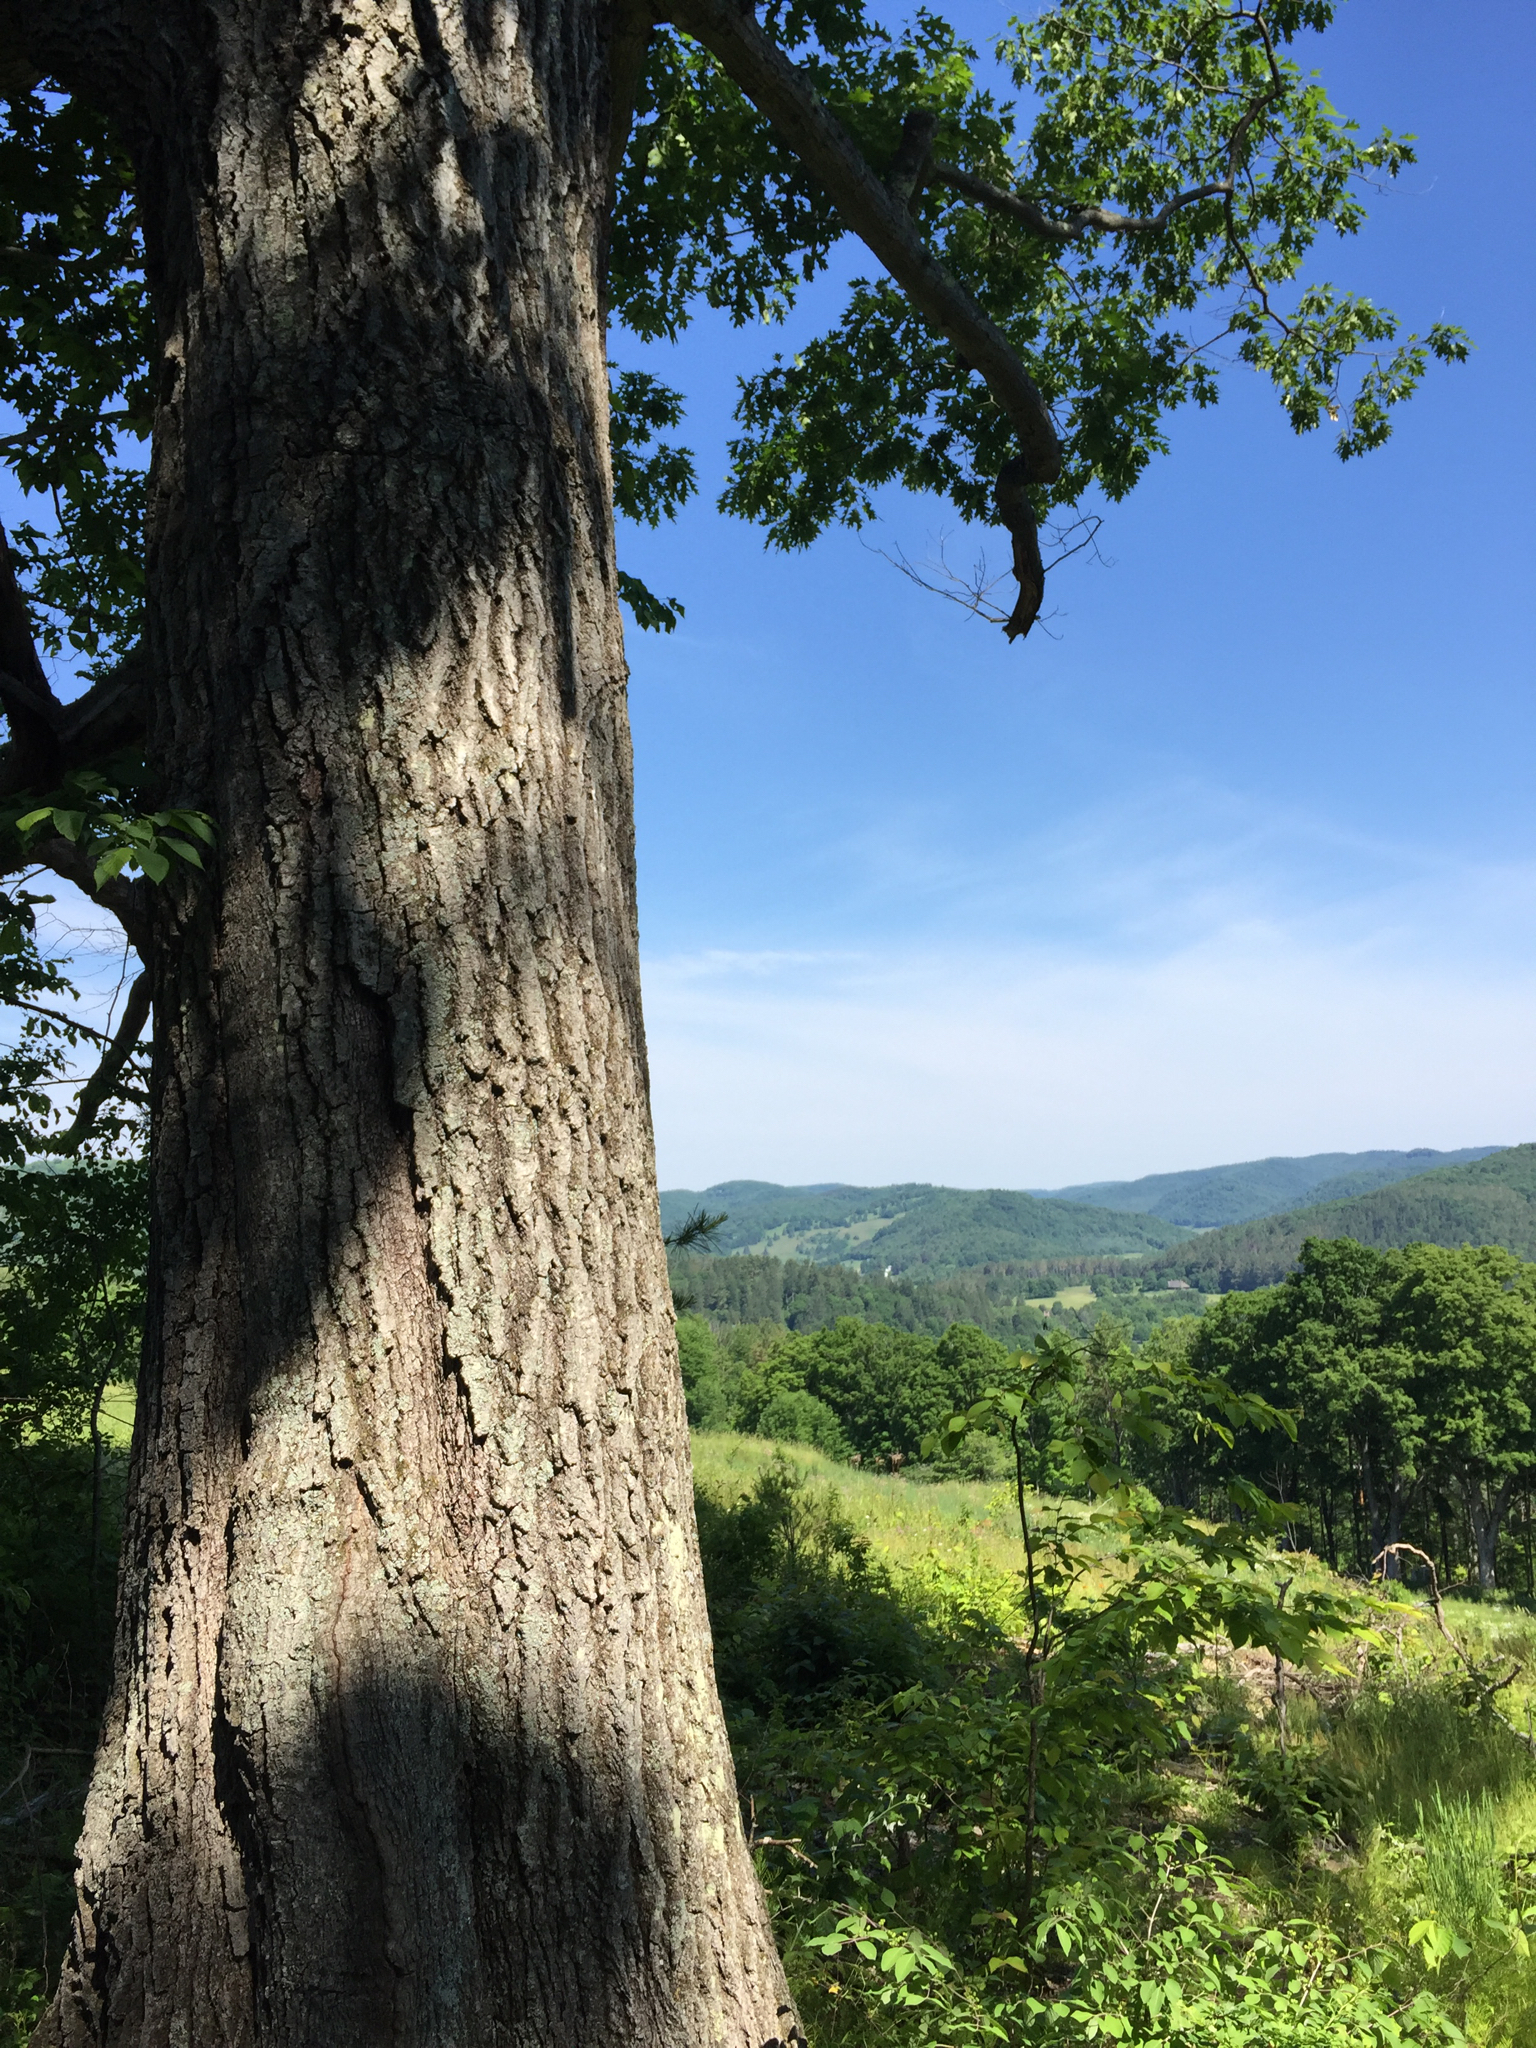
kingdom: Plantae
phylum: Tracheophyta
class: Magnoliopsida
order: Fagales
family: Fagaceae
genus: Quercus
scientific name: Quercus rubra
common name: Red oak
